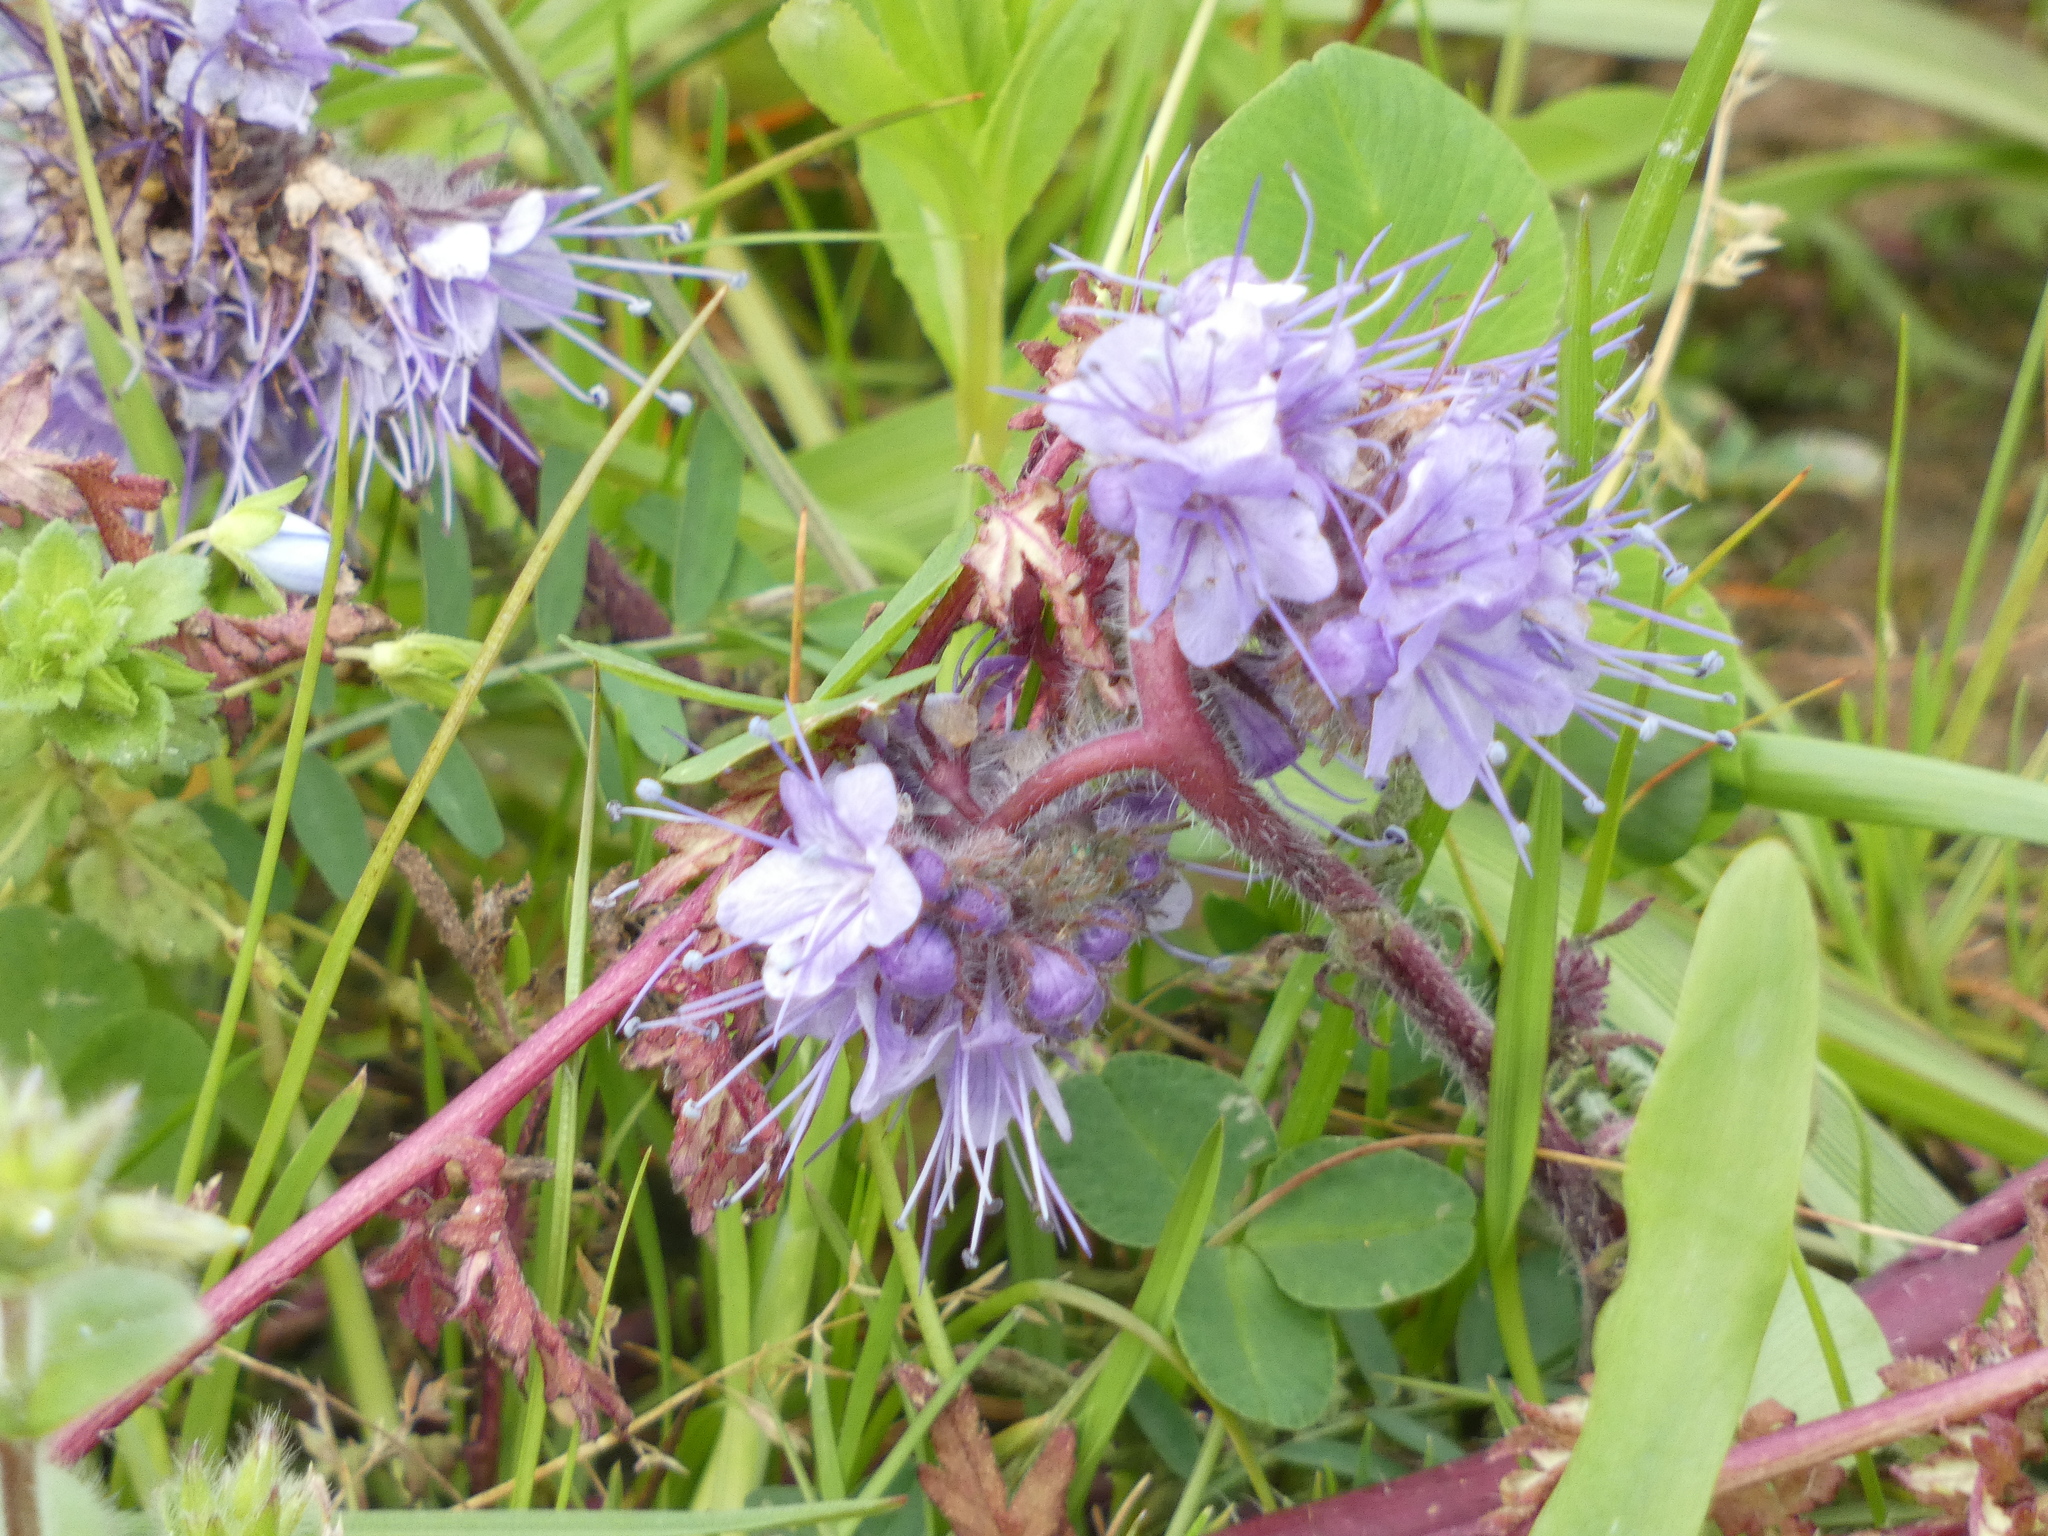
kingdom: Plantae
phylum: Tracheophyta
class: Magnoliopsida
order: Boraginales
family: Hydrophyllaceae
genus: Phacelia
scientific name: Phacelia tanacetifolia
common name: Phacelia
